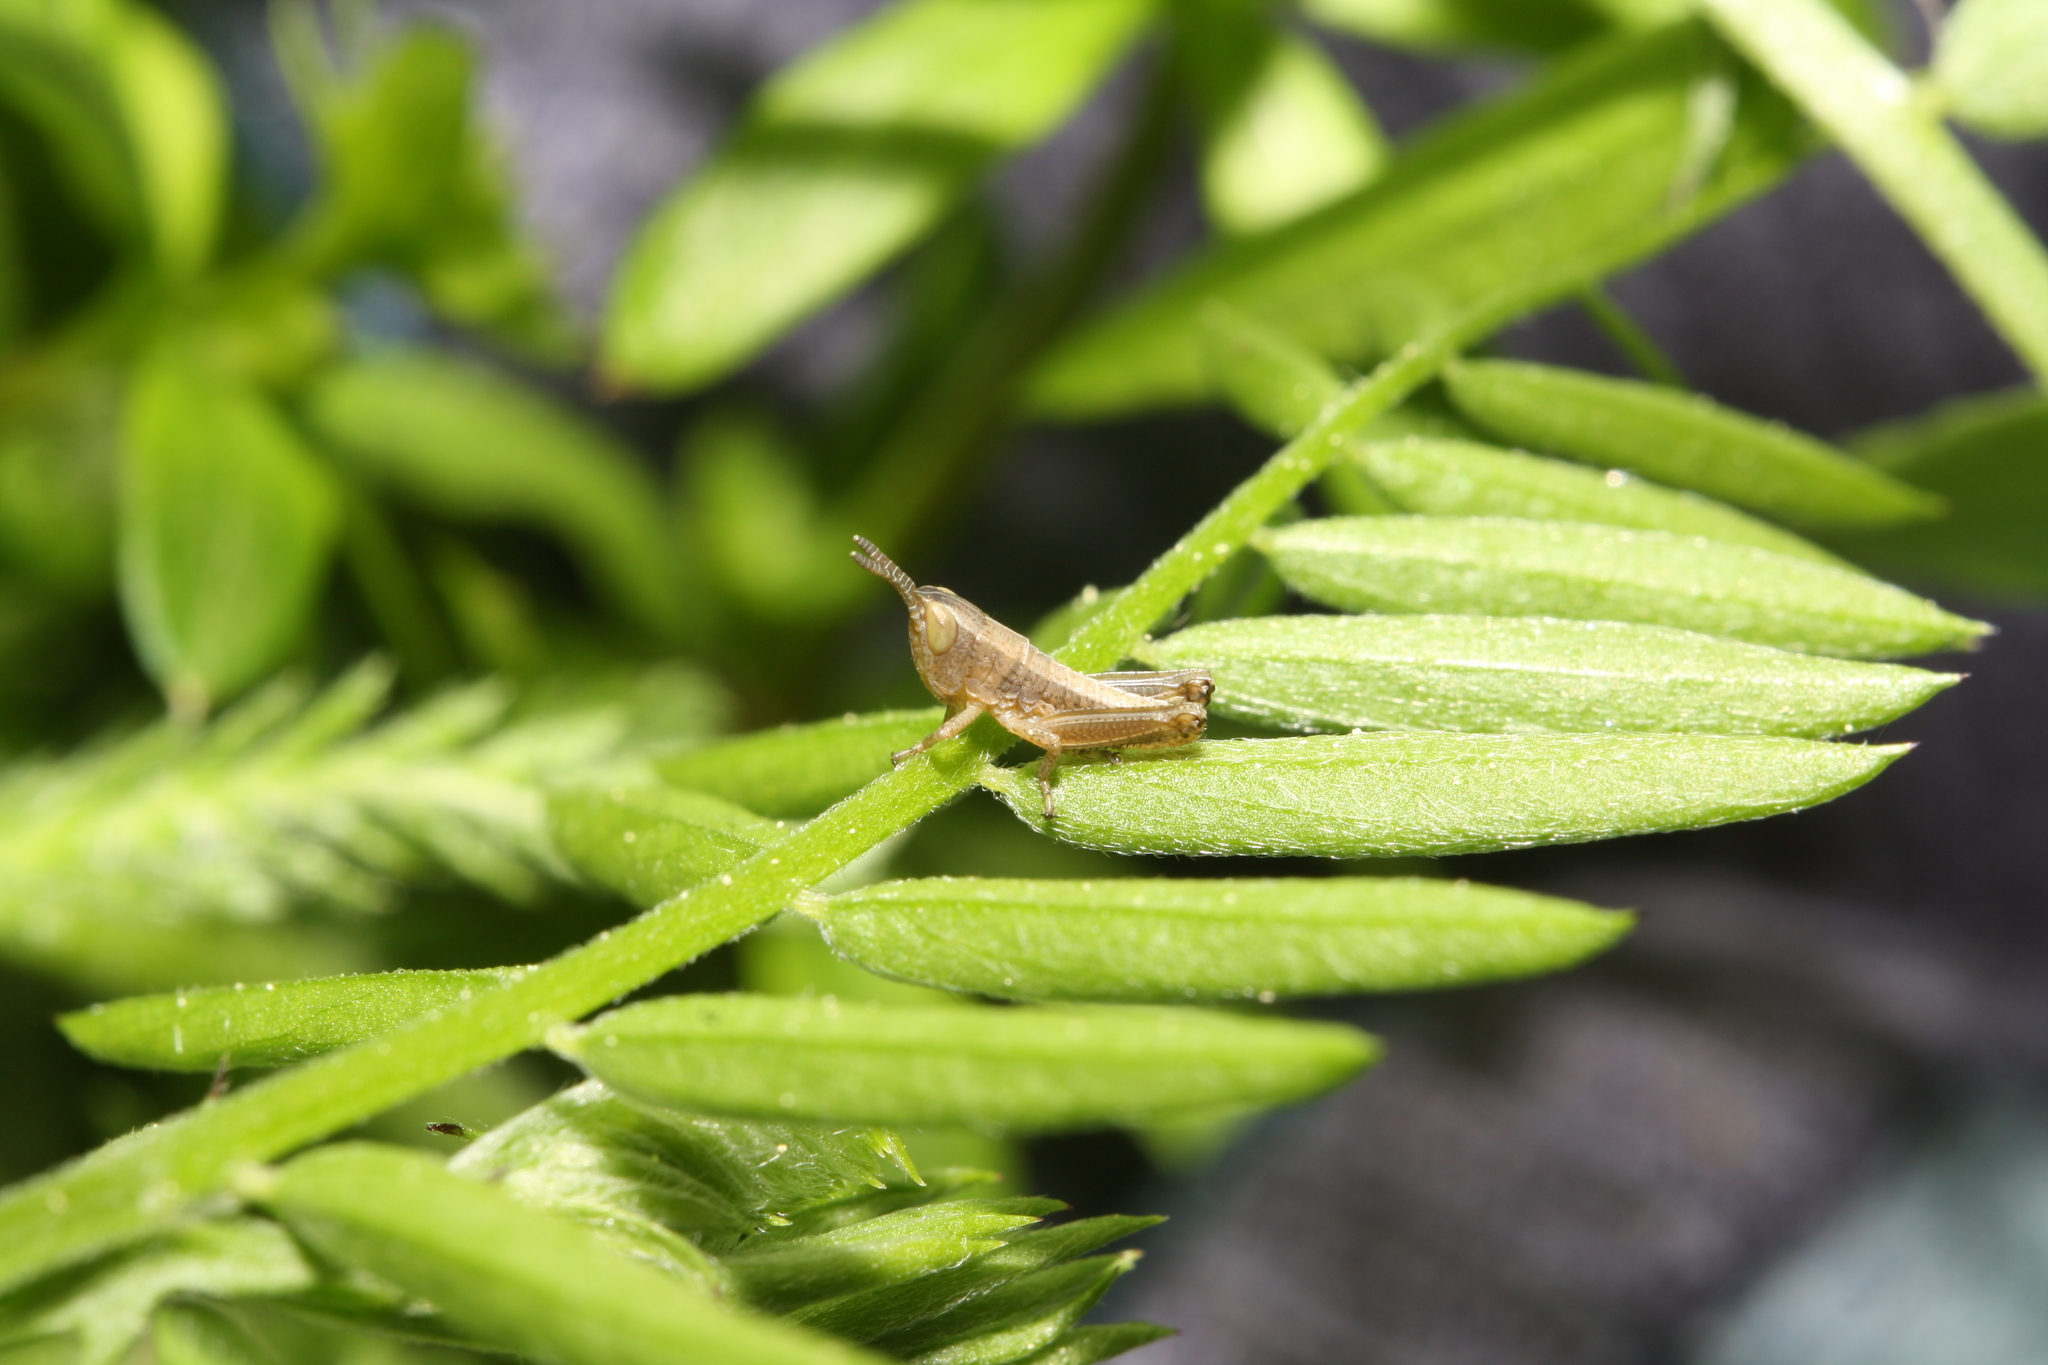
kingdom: Animalia
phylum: Arthropoda
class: Insecta
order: Orthoptera
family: Acrididae
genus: Gomphocerippus
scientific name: Gomphocerippus rufus
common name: Rufous grasshopper
